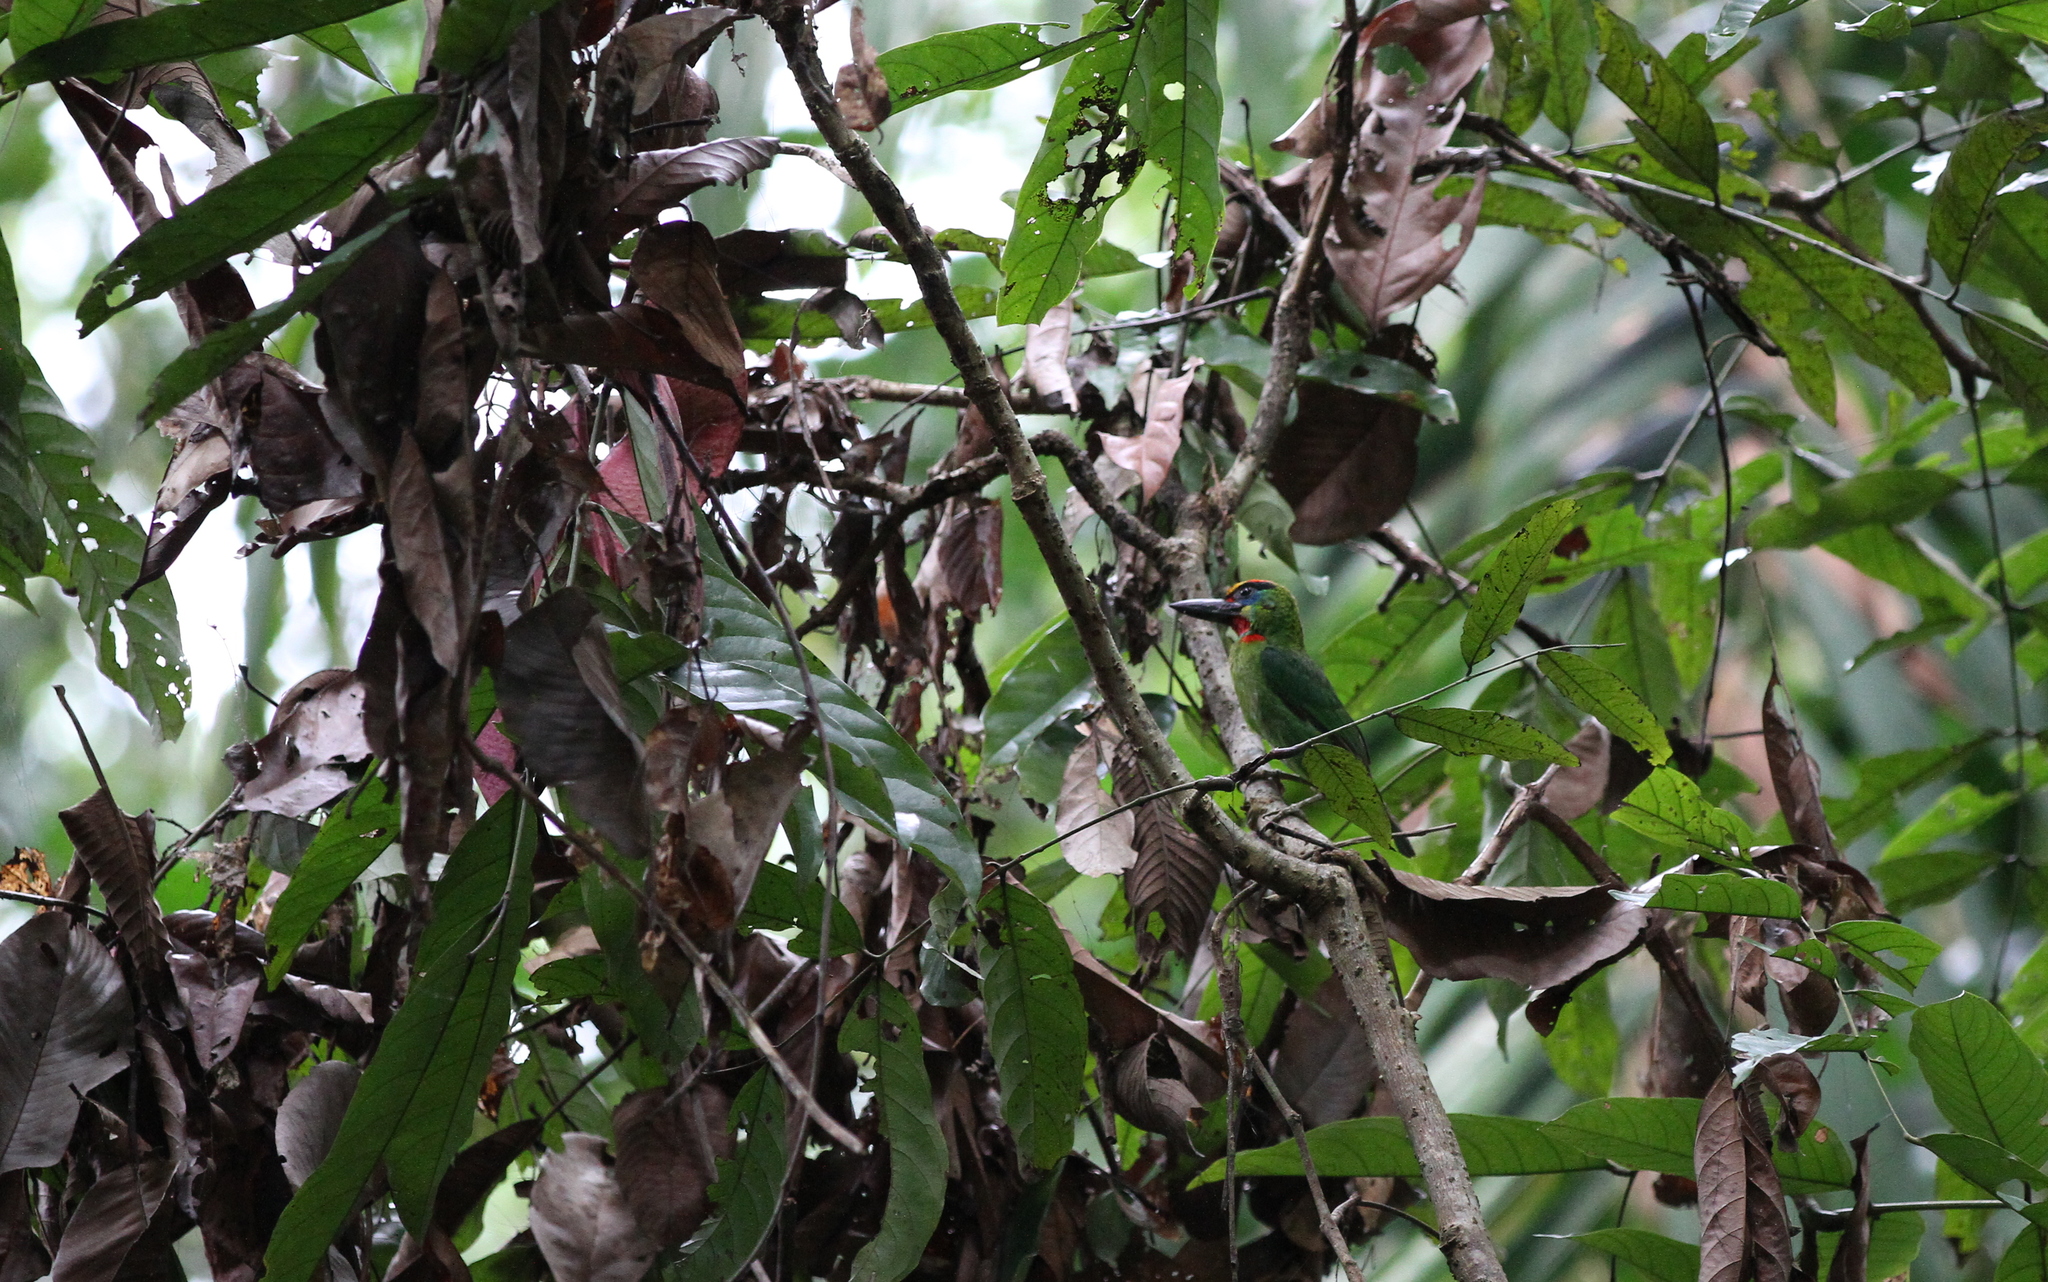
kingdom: Animalia
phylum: Chordata
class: Aves
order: Piciformes
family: Megalaimidae
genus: Psilopogon
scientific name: Psilopogon mystacophanos
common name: Red-throated barbet
